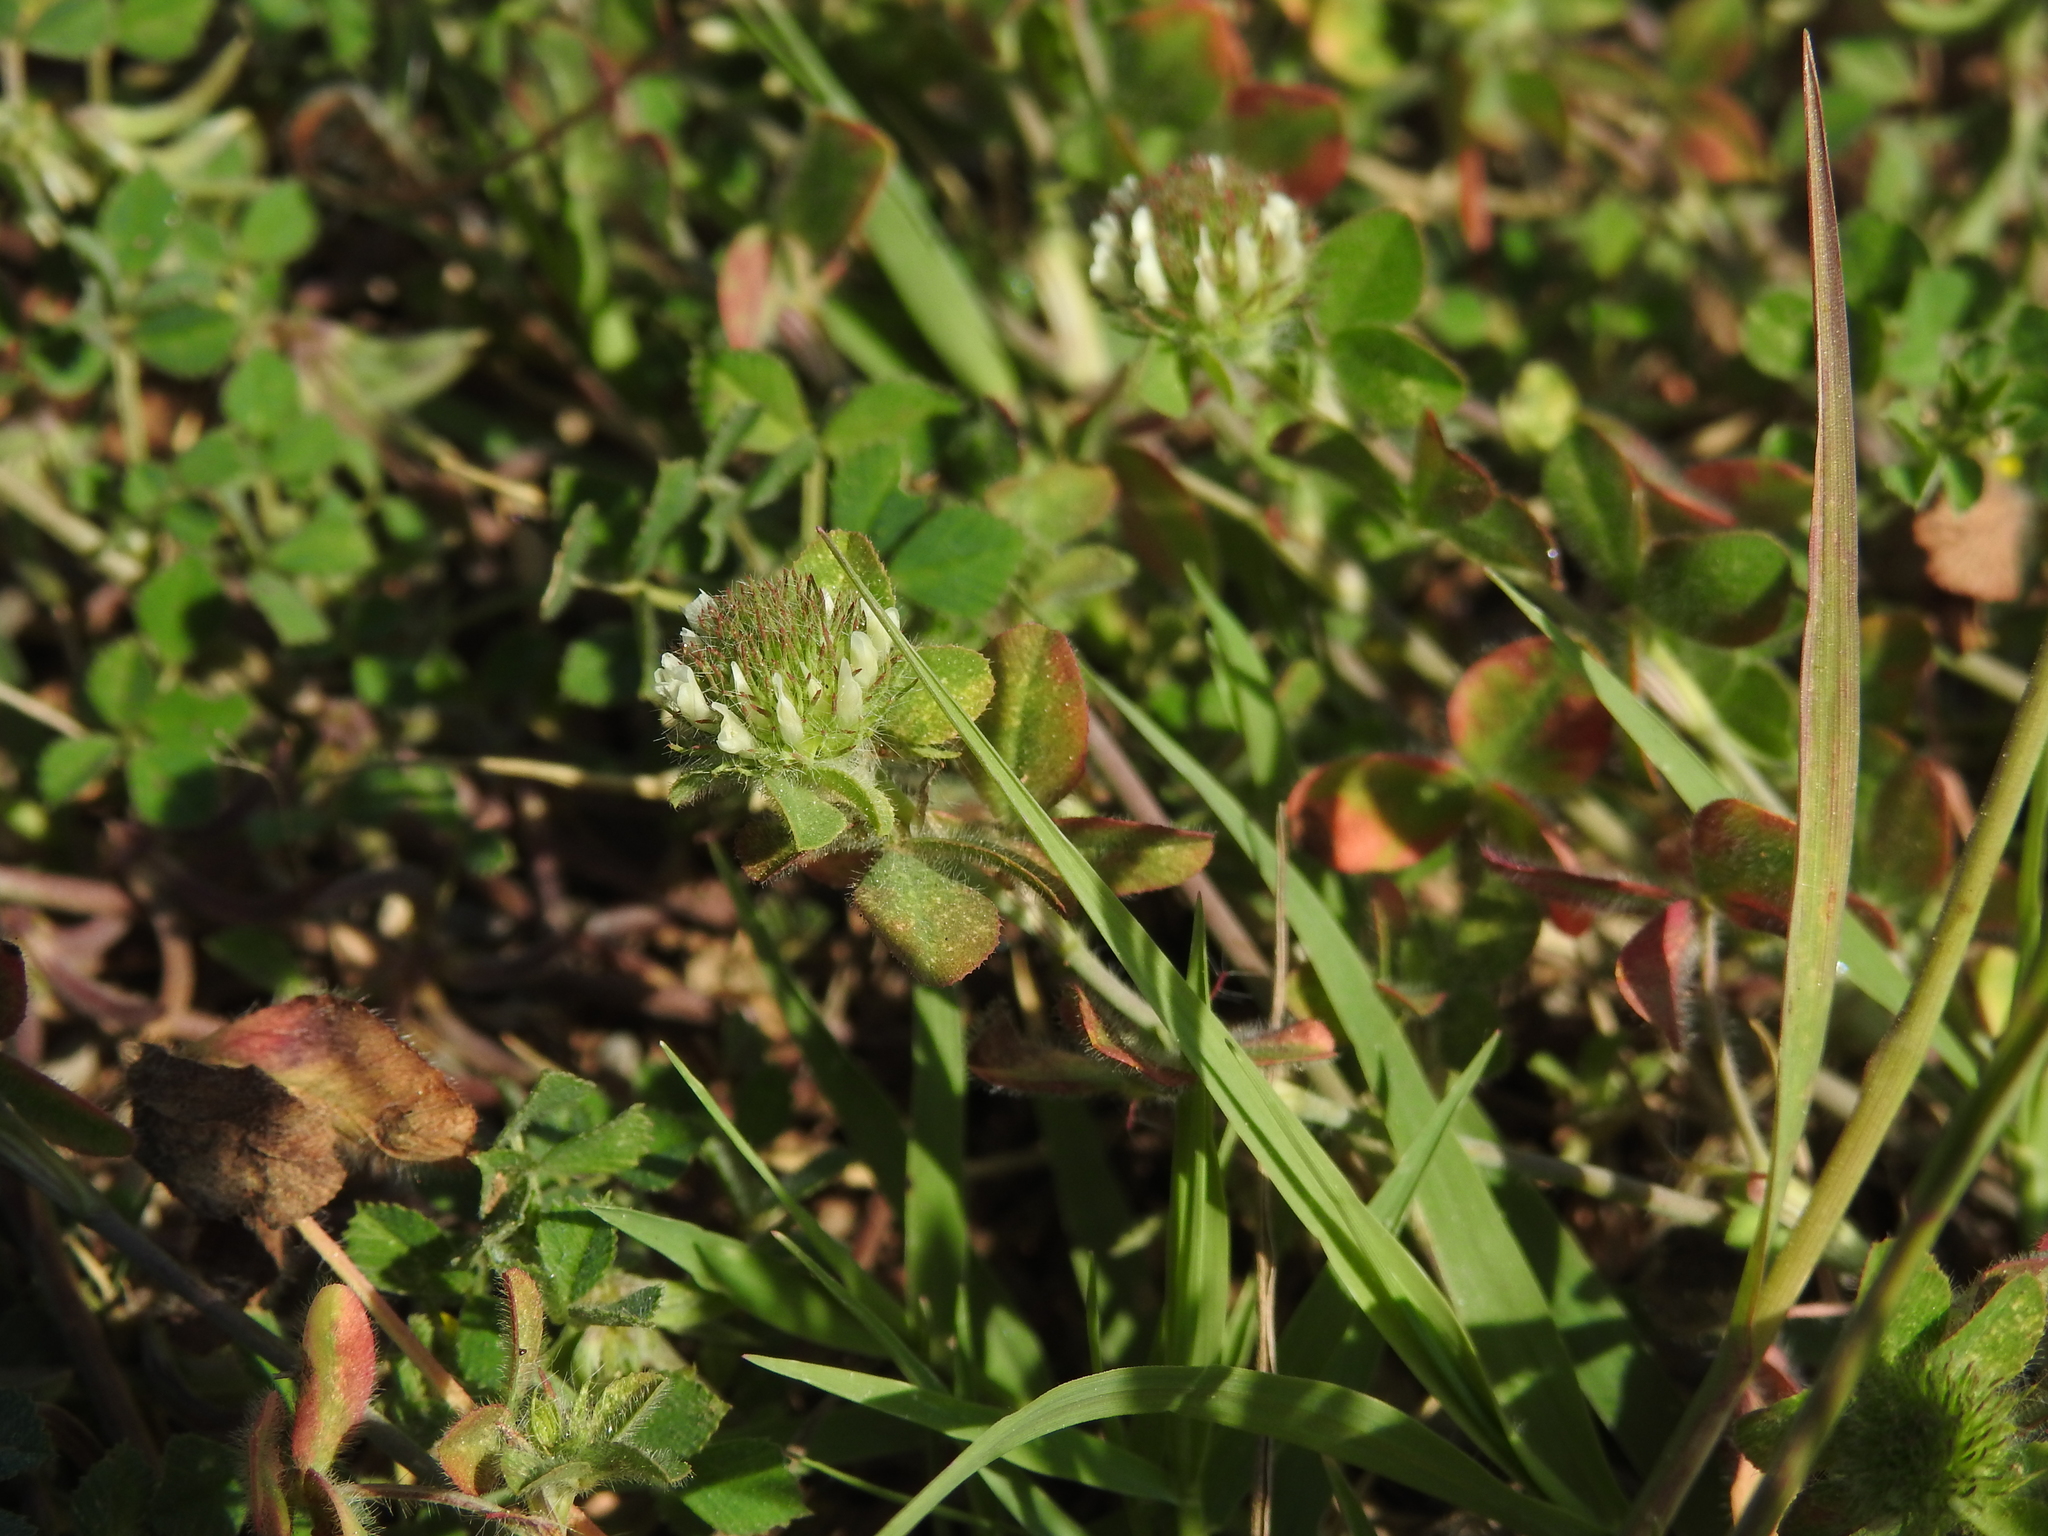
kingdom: Plantae
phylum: Tracheophyta
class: Magnoliopsida
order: Fabales
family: Fabaceae
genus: Trifolium
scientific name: Trifolium lappaceum
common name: Bur clover
